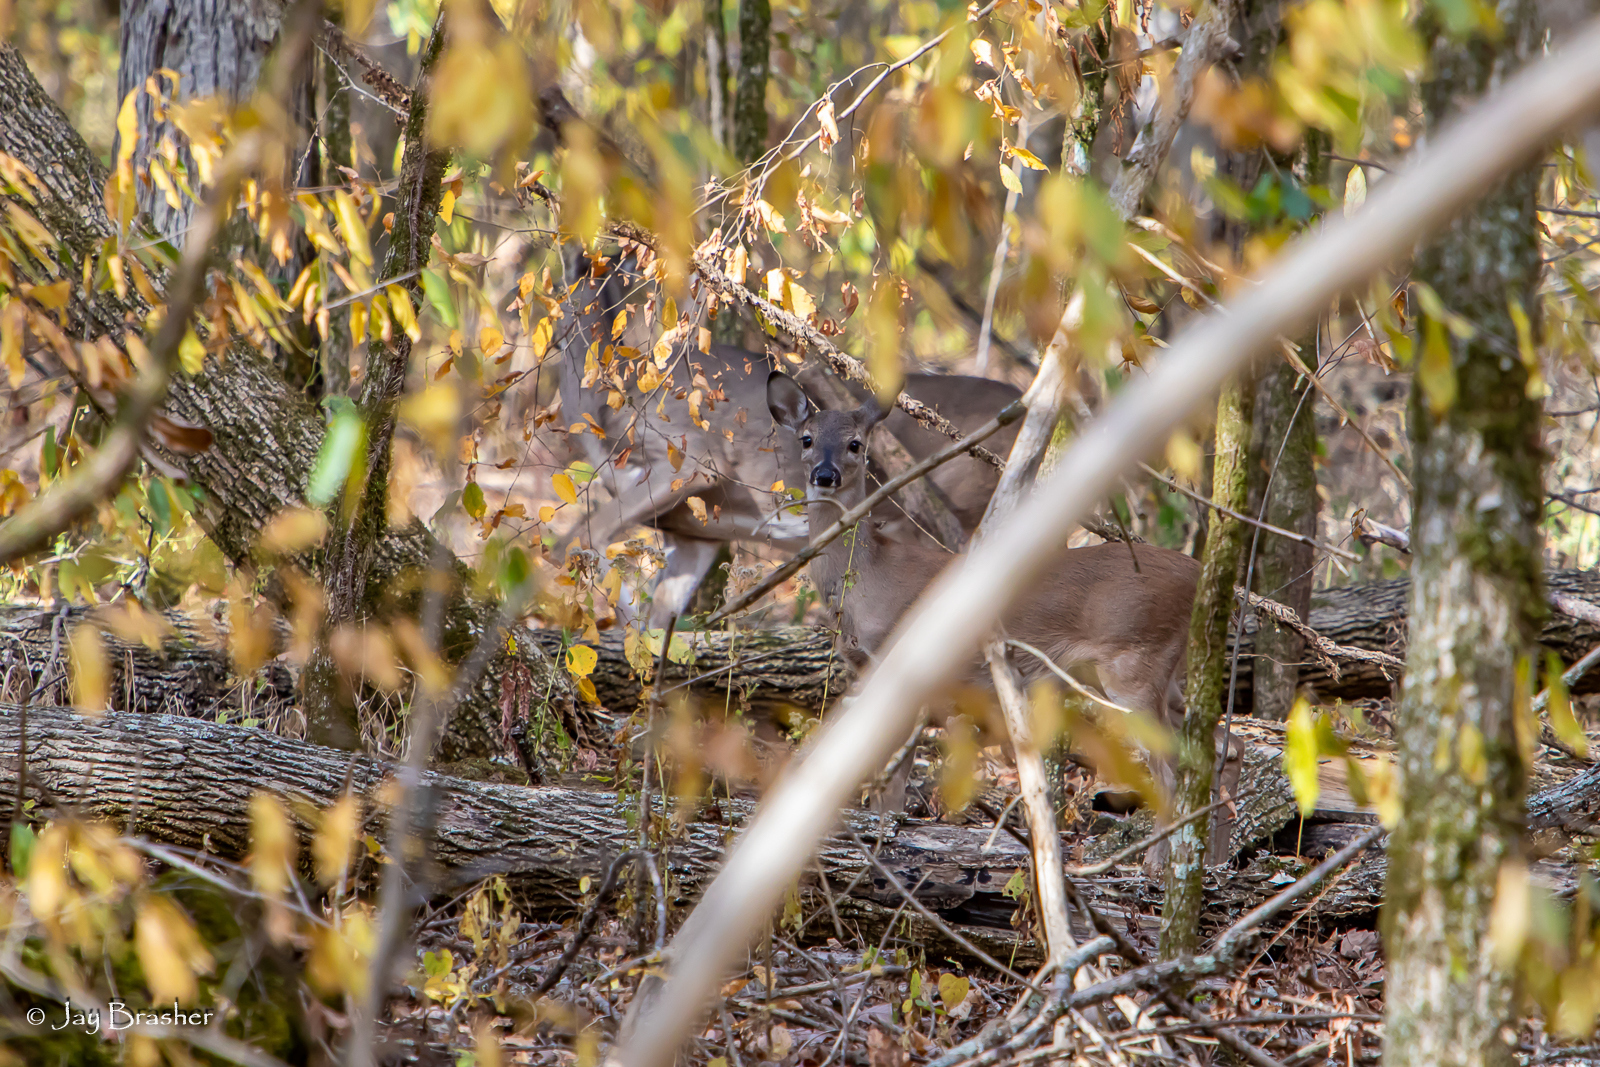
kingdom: Animalia
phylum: Chordata
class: Mammalia
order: Artiodactyla
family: Cervidae
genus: Odocoileus
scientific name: Odocoileus virginianus
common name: White-tailed deer
